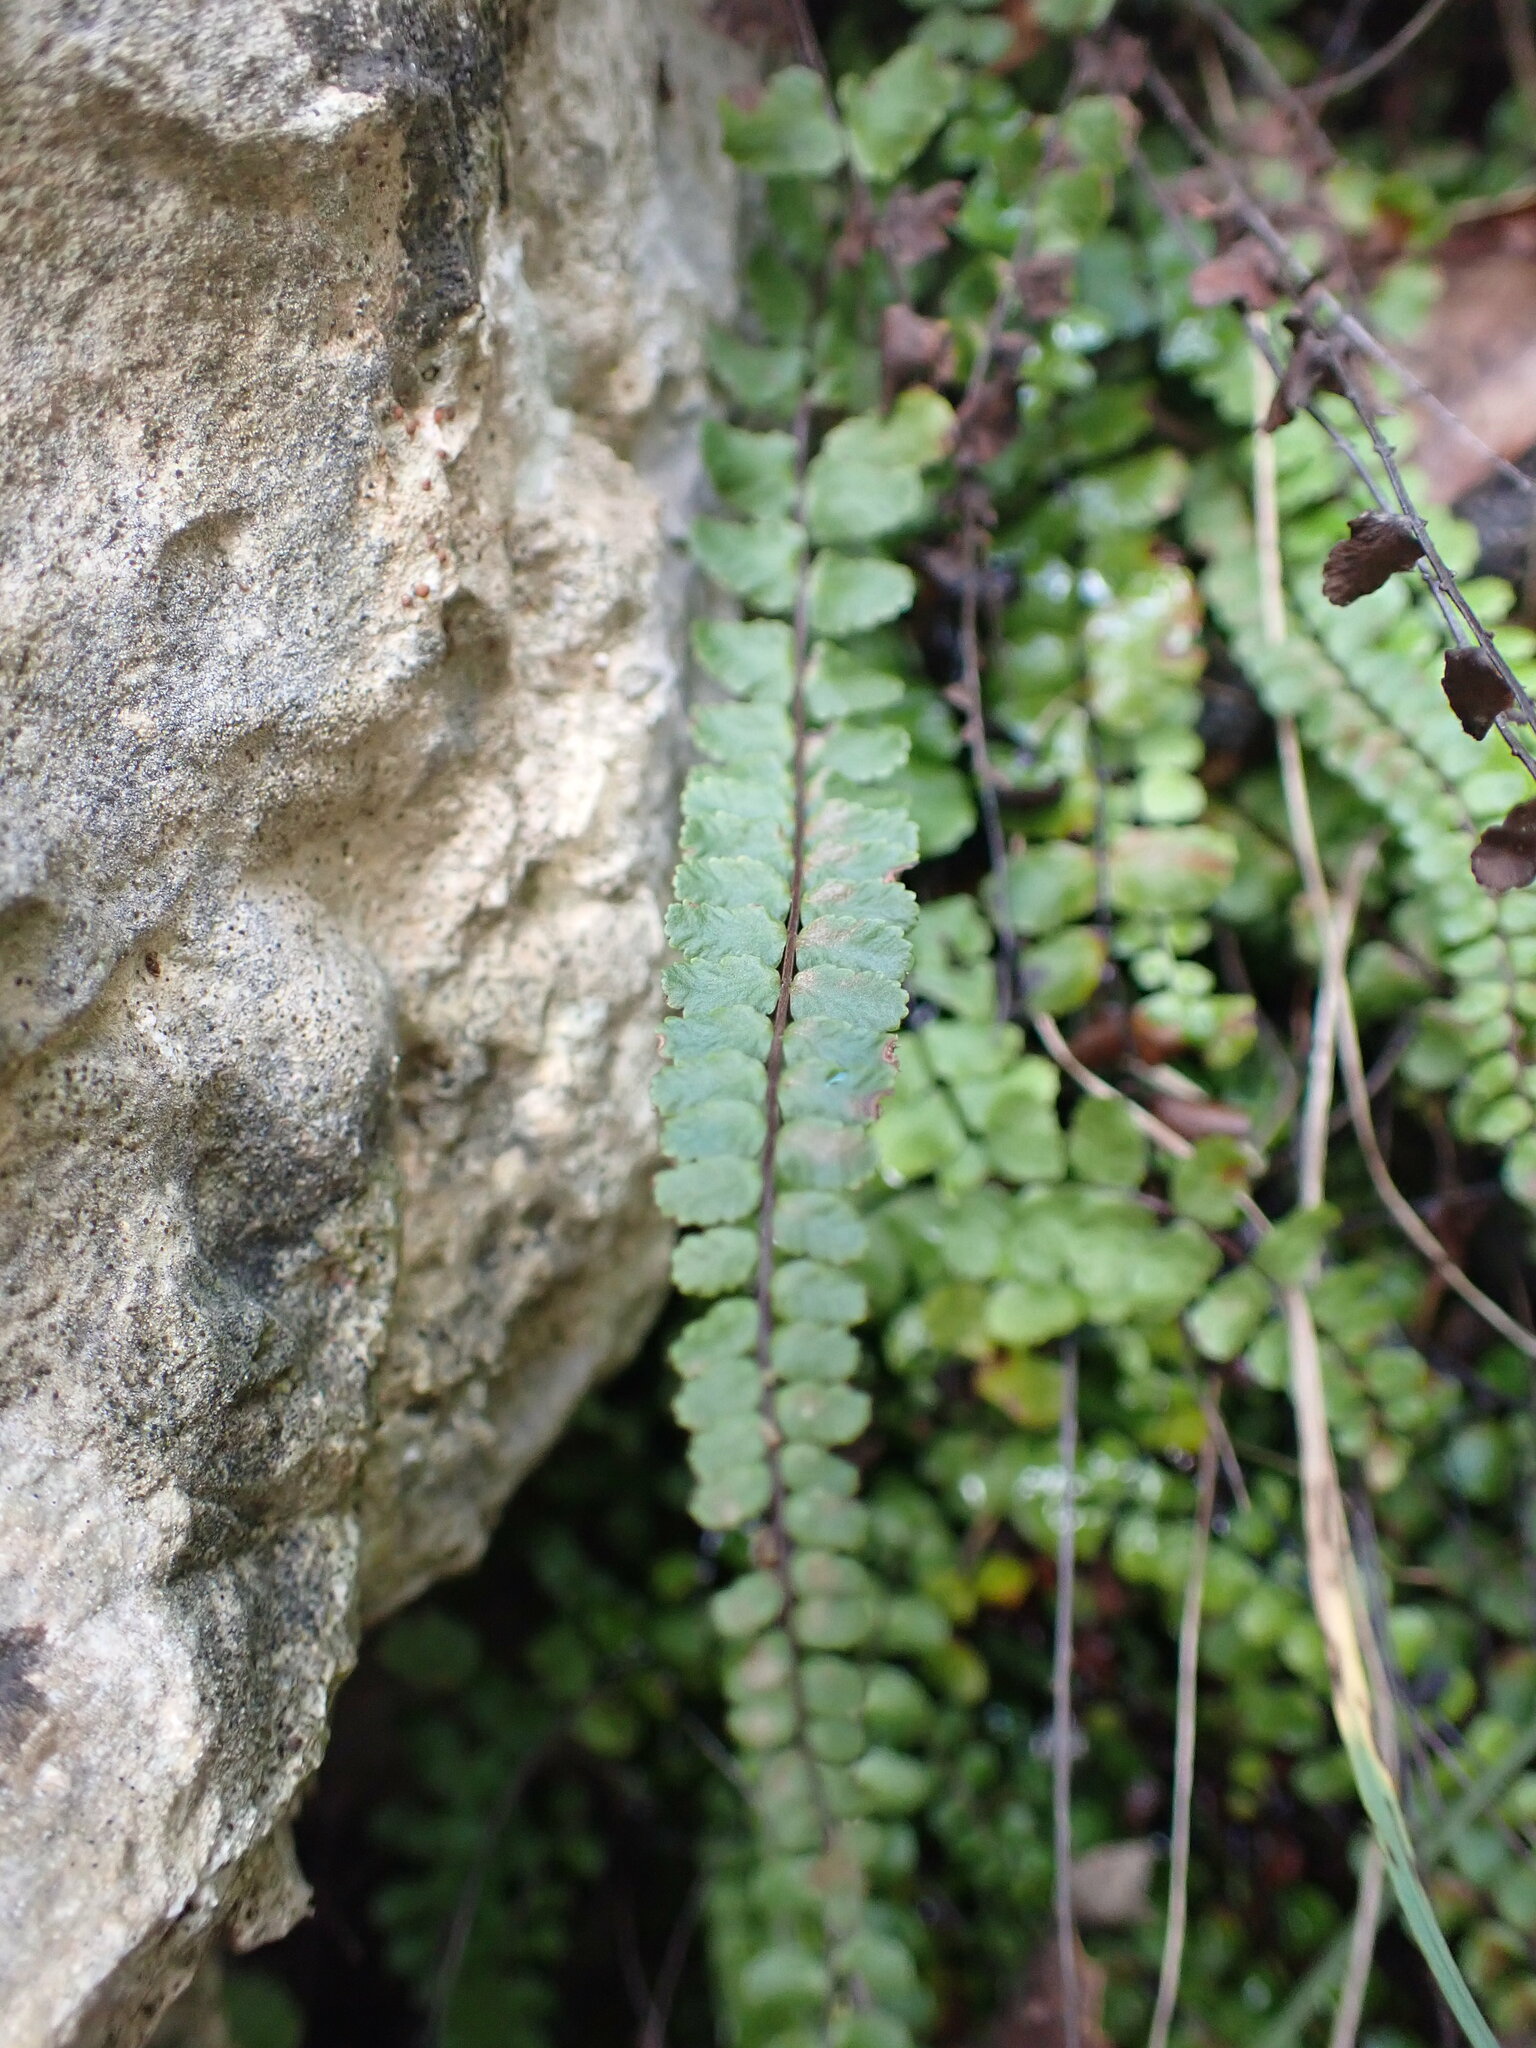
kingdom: Plantae
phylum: Tracheophyta
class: Polypodiopsida
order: Polypodiales
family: Aspleniaceae
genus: Asplenium
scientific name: Asplenium trichomanes
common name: Maidenhair spleenwort
